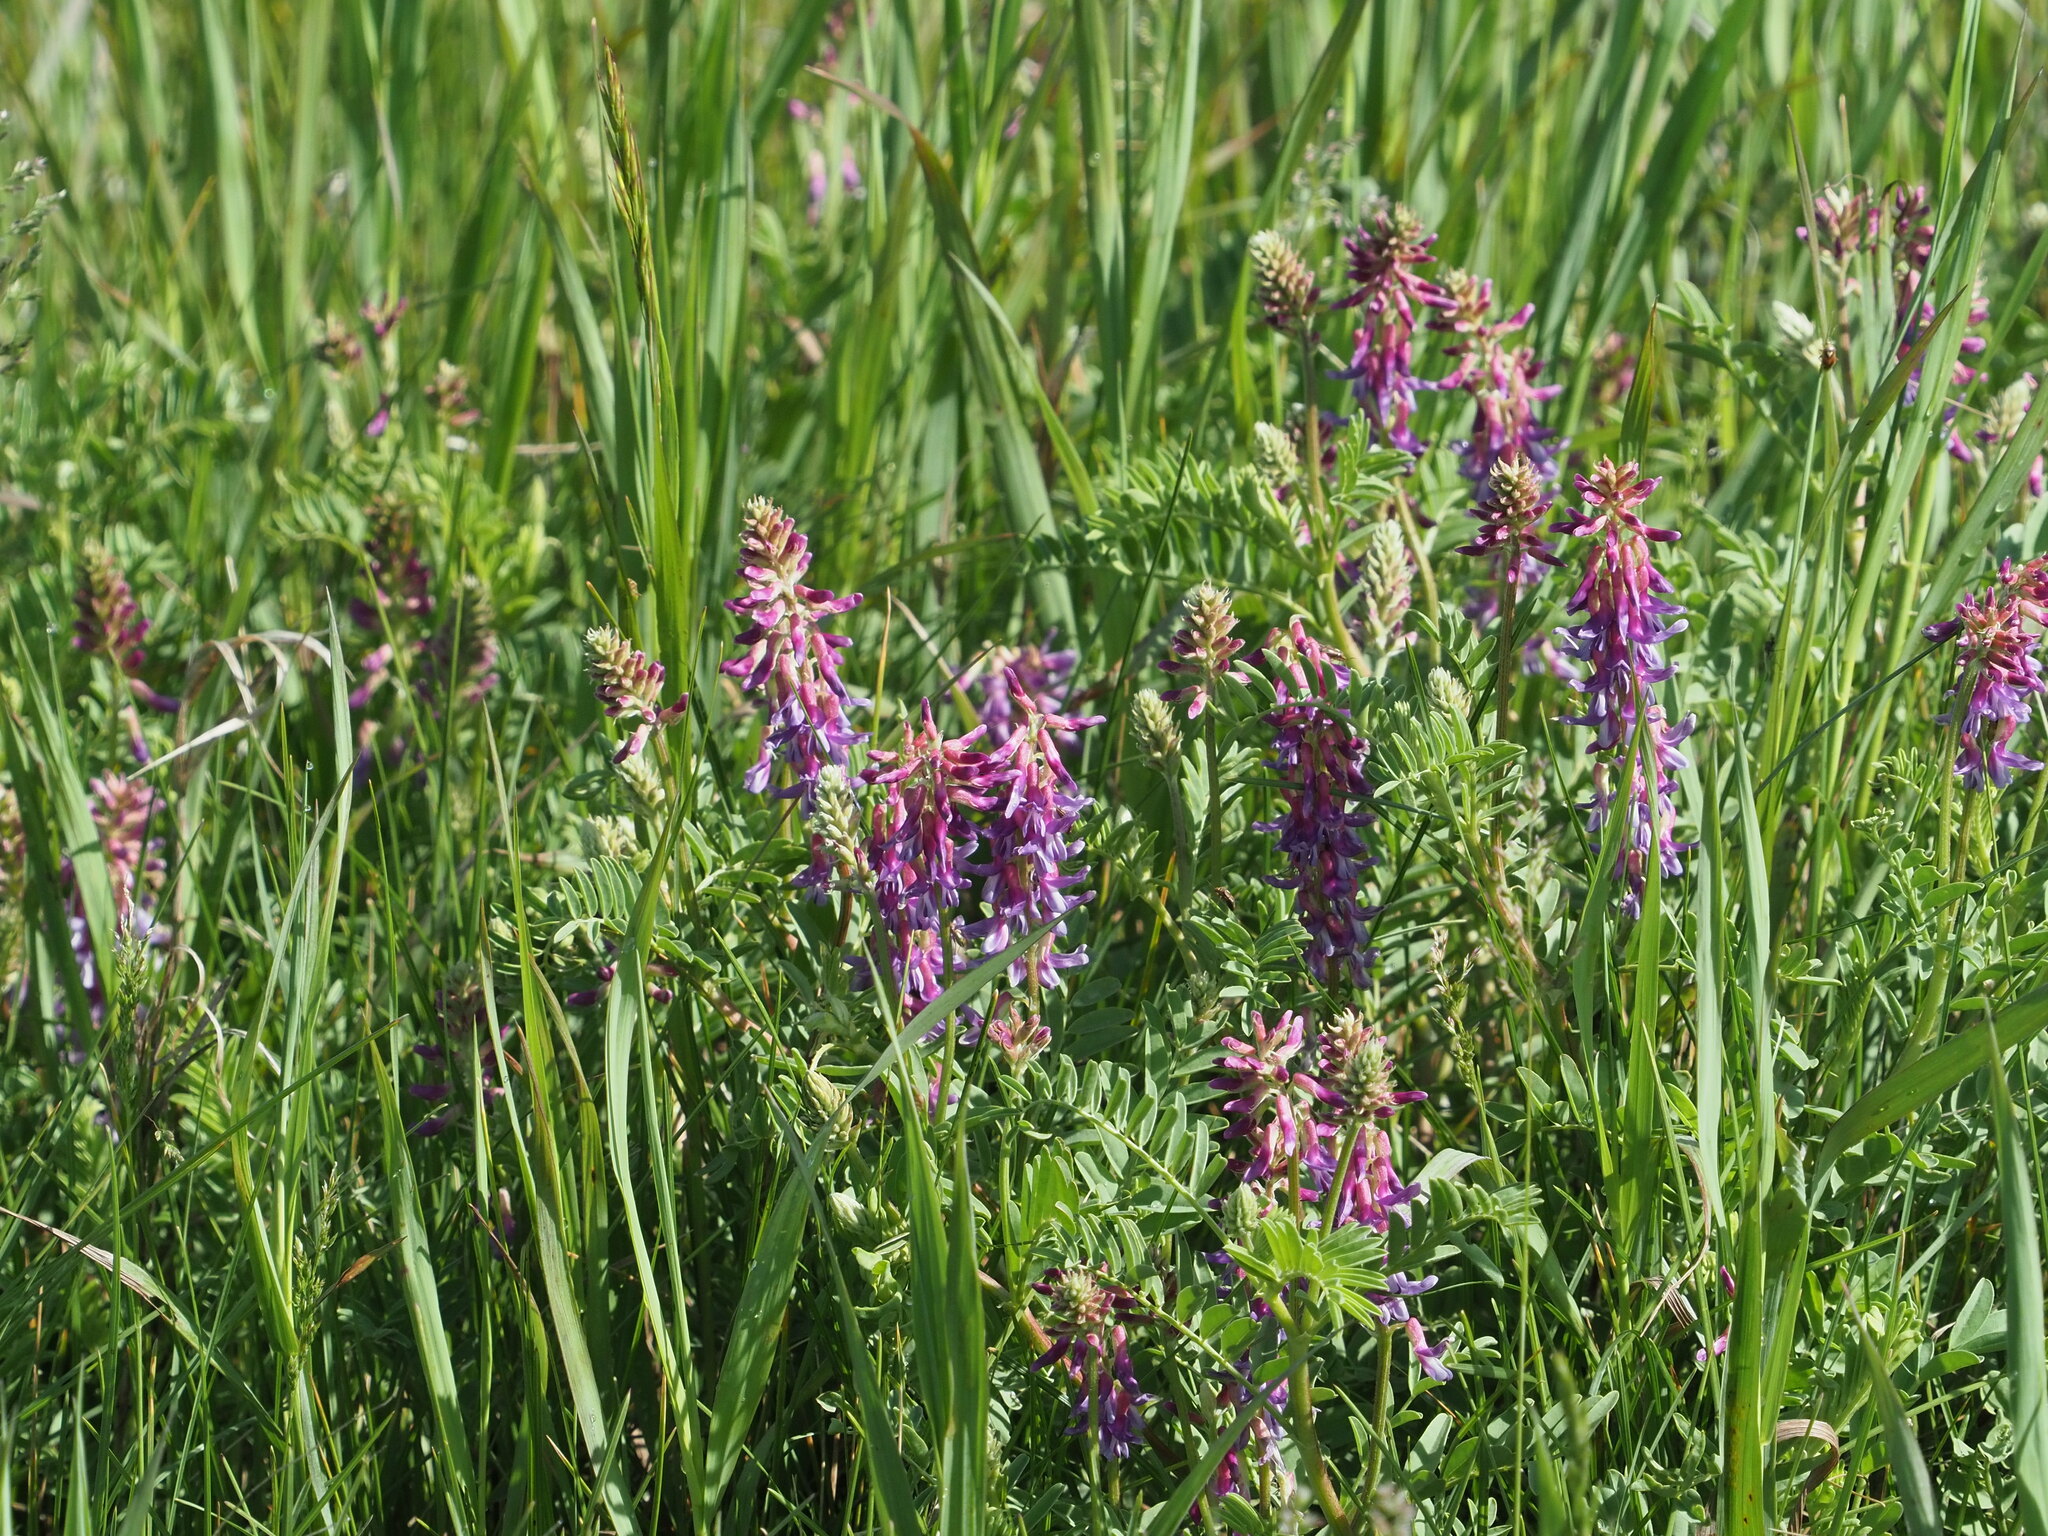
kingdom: Plantae
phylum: Tracheophyta
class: Magnoliopsida
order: Fabales
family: Fabaceae
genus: Astragalus
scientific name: Astragalus bisulcatus
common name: Two-groove milk-vetch
